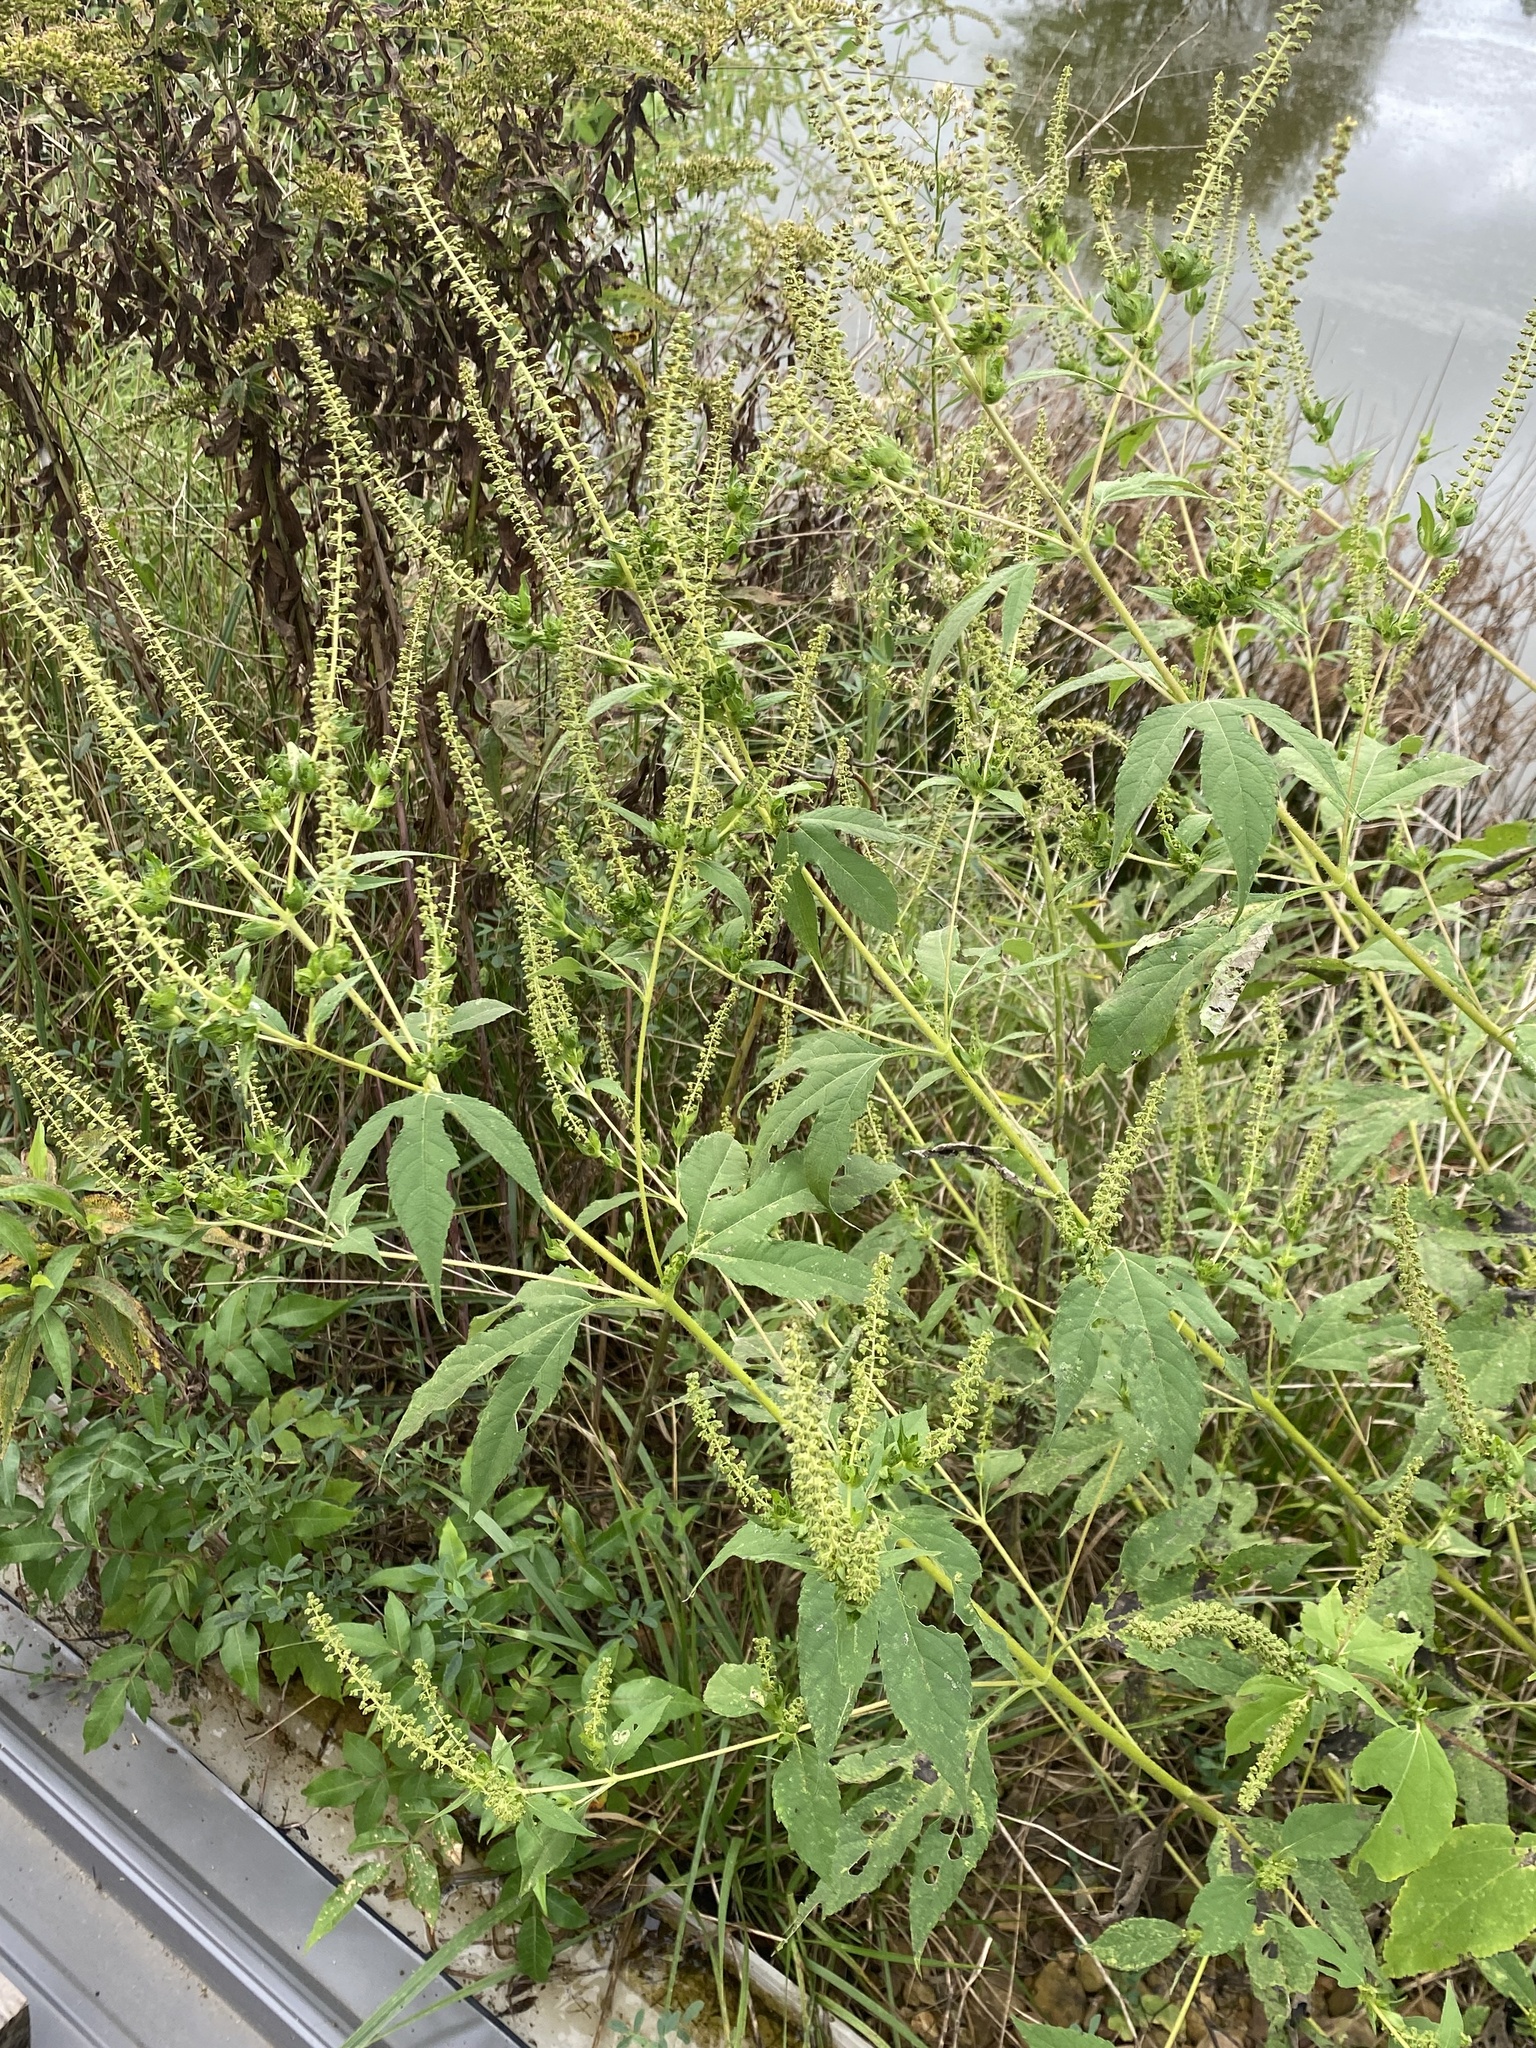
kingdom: Plantae
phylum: Tracheophyta
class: Magnoliopsida
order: Asterales
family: Asteraceae
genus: Ambrosia
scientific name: Ambrosia trifida
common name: Giant ragweed
